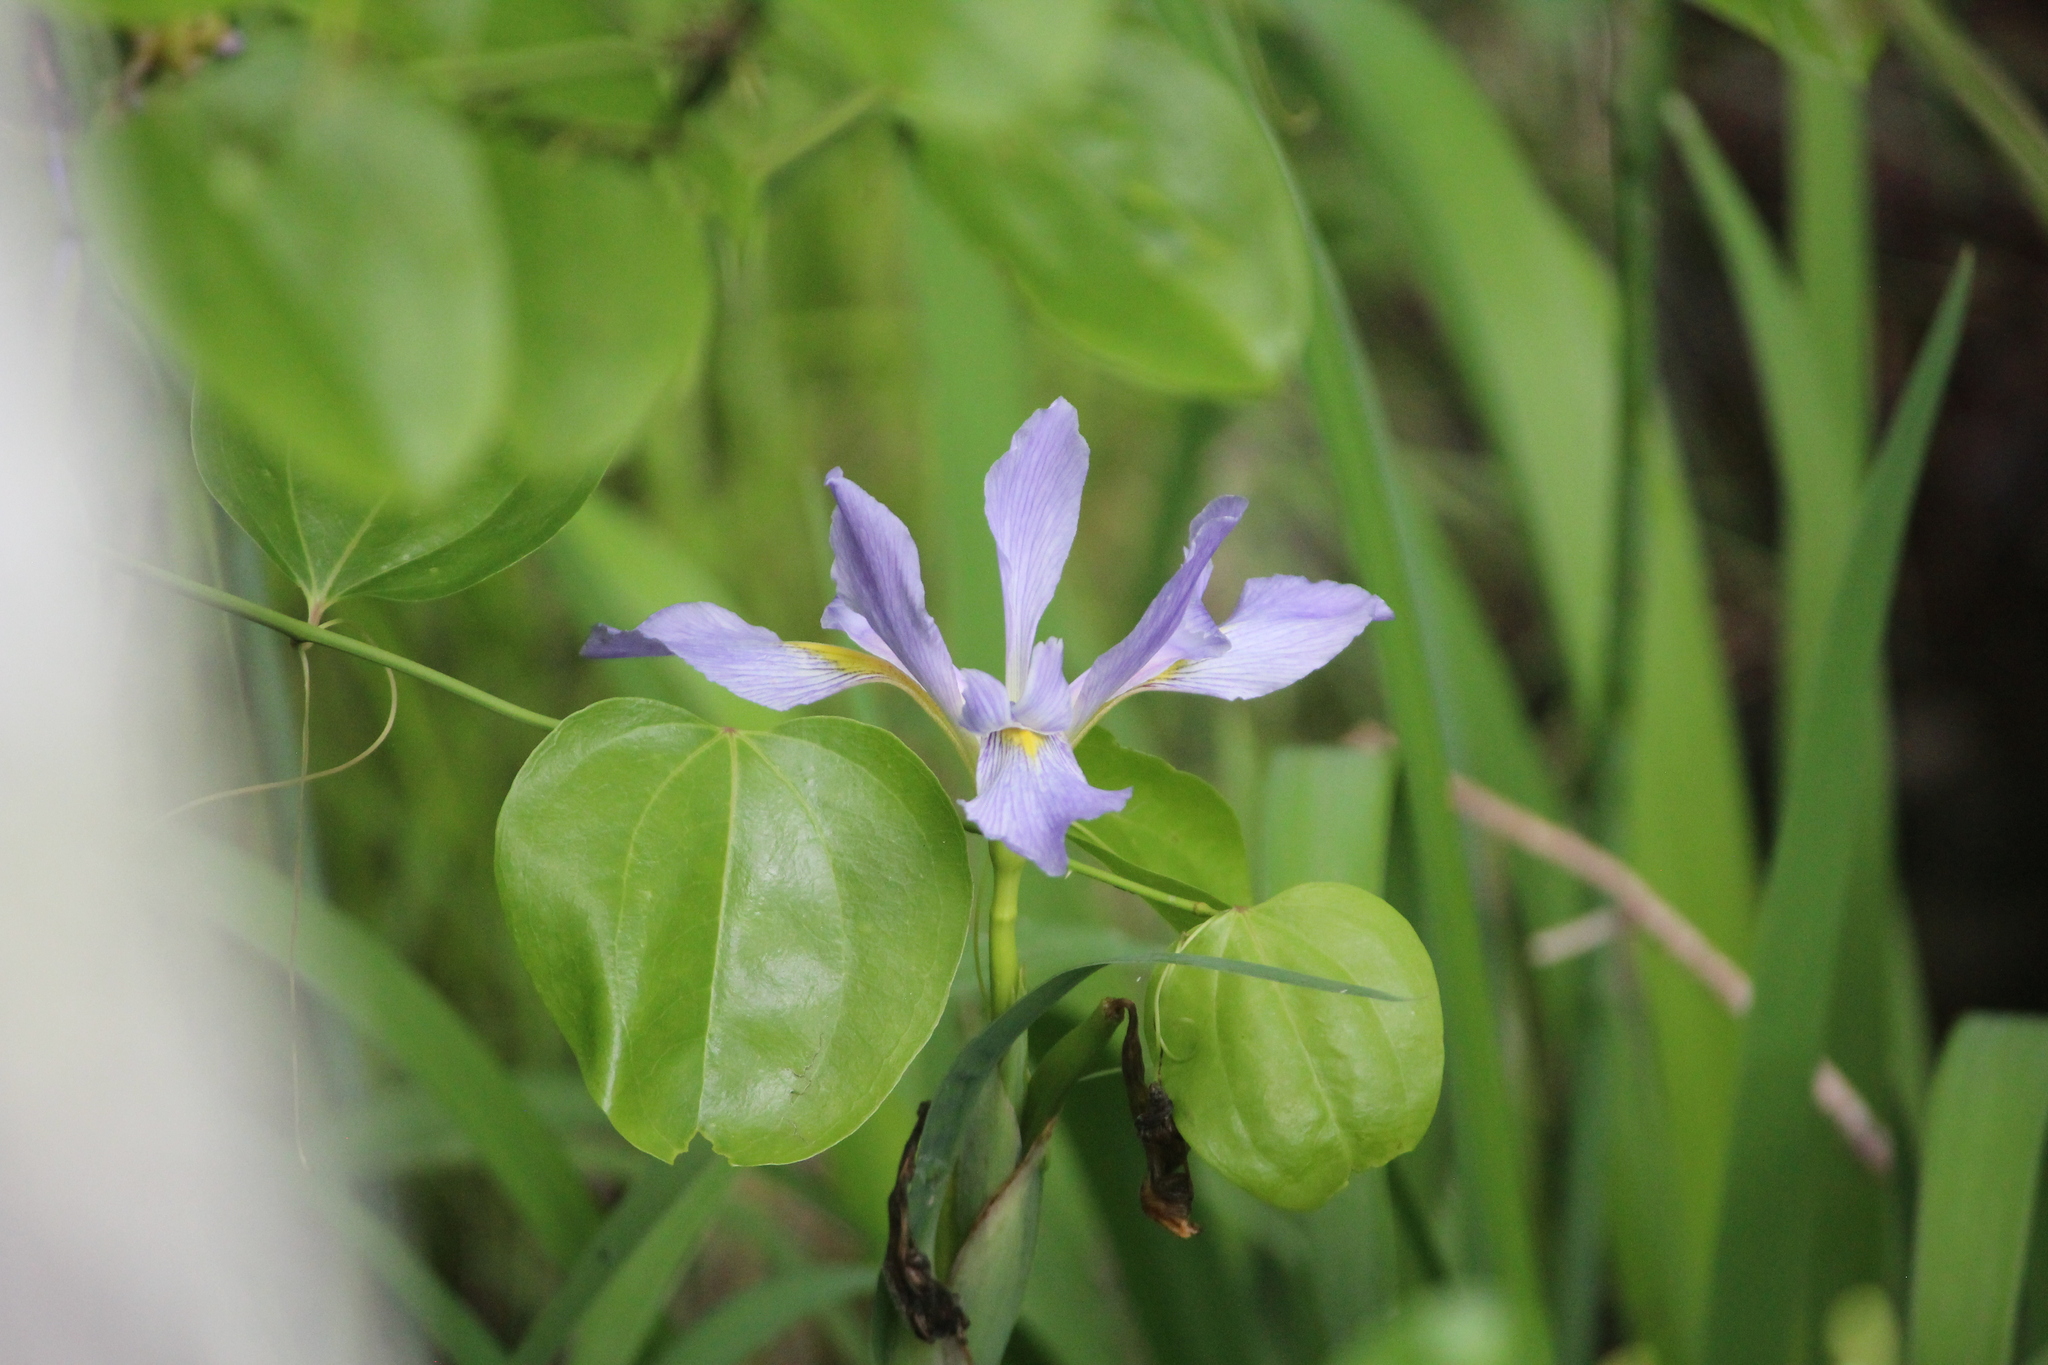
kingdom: Plantae
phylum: Tracheophyta
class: Liliopsida
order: Asparagales
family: Iridaceae
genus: Iris
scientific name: Iris virginica
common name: Southern blue flag
